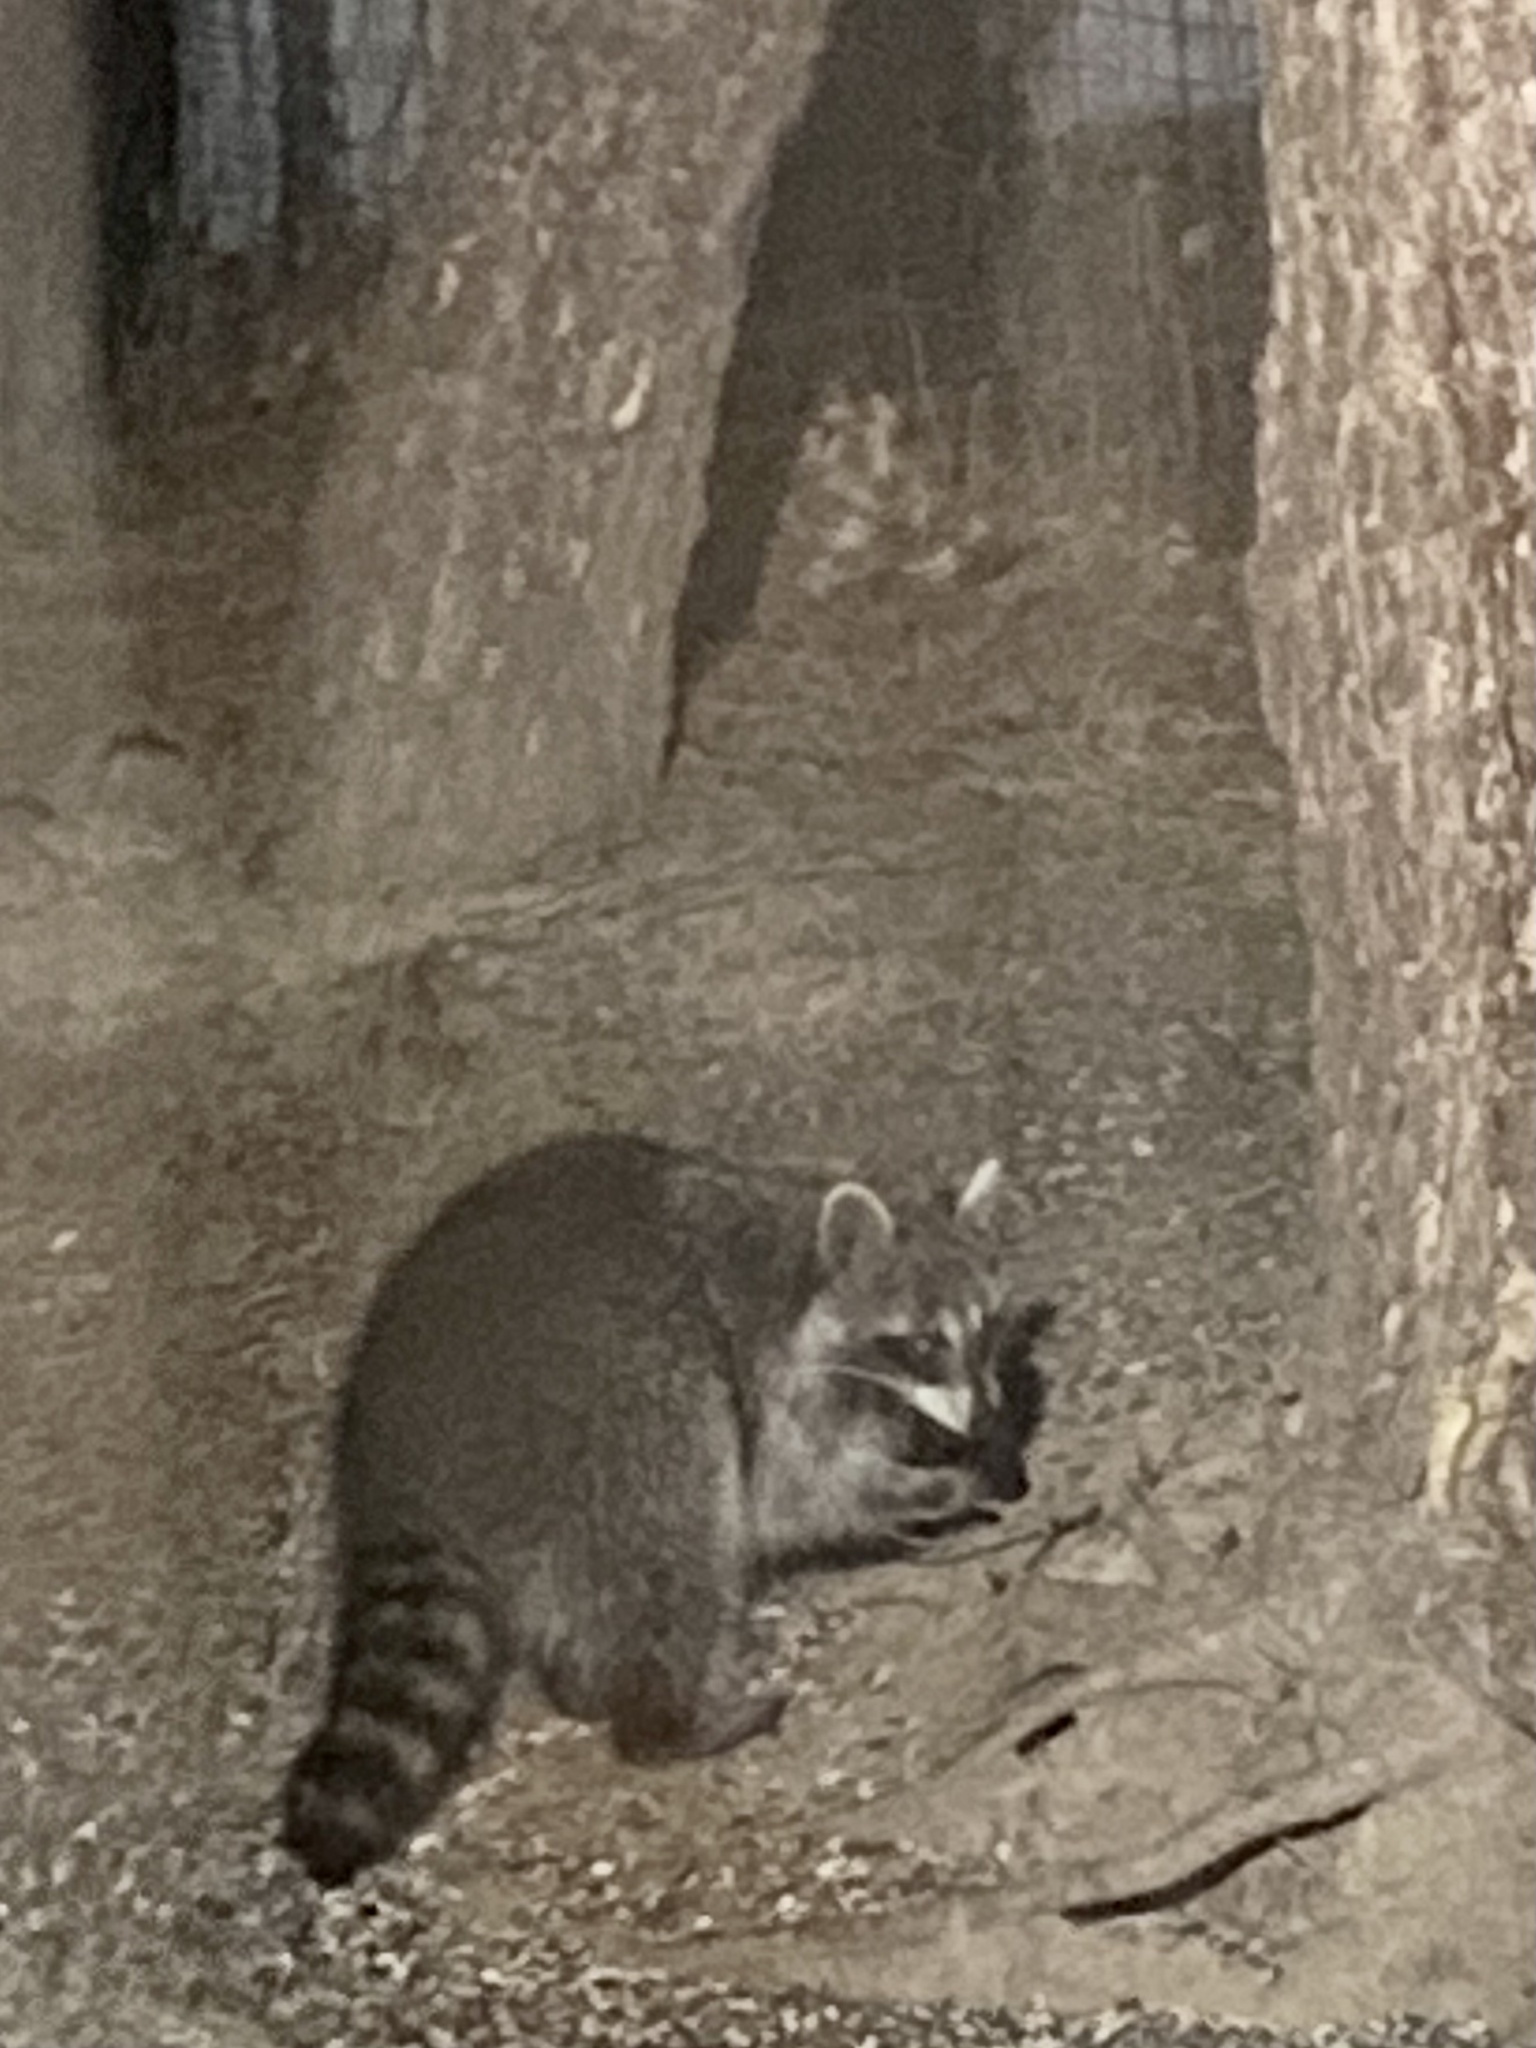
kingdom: Animalia
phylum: Chordata
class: Mammalia
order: Carnivora
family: Procyonidae
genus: Procyon
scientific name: Procyon lotor
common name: Raccoon
